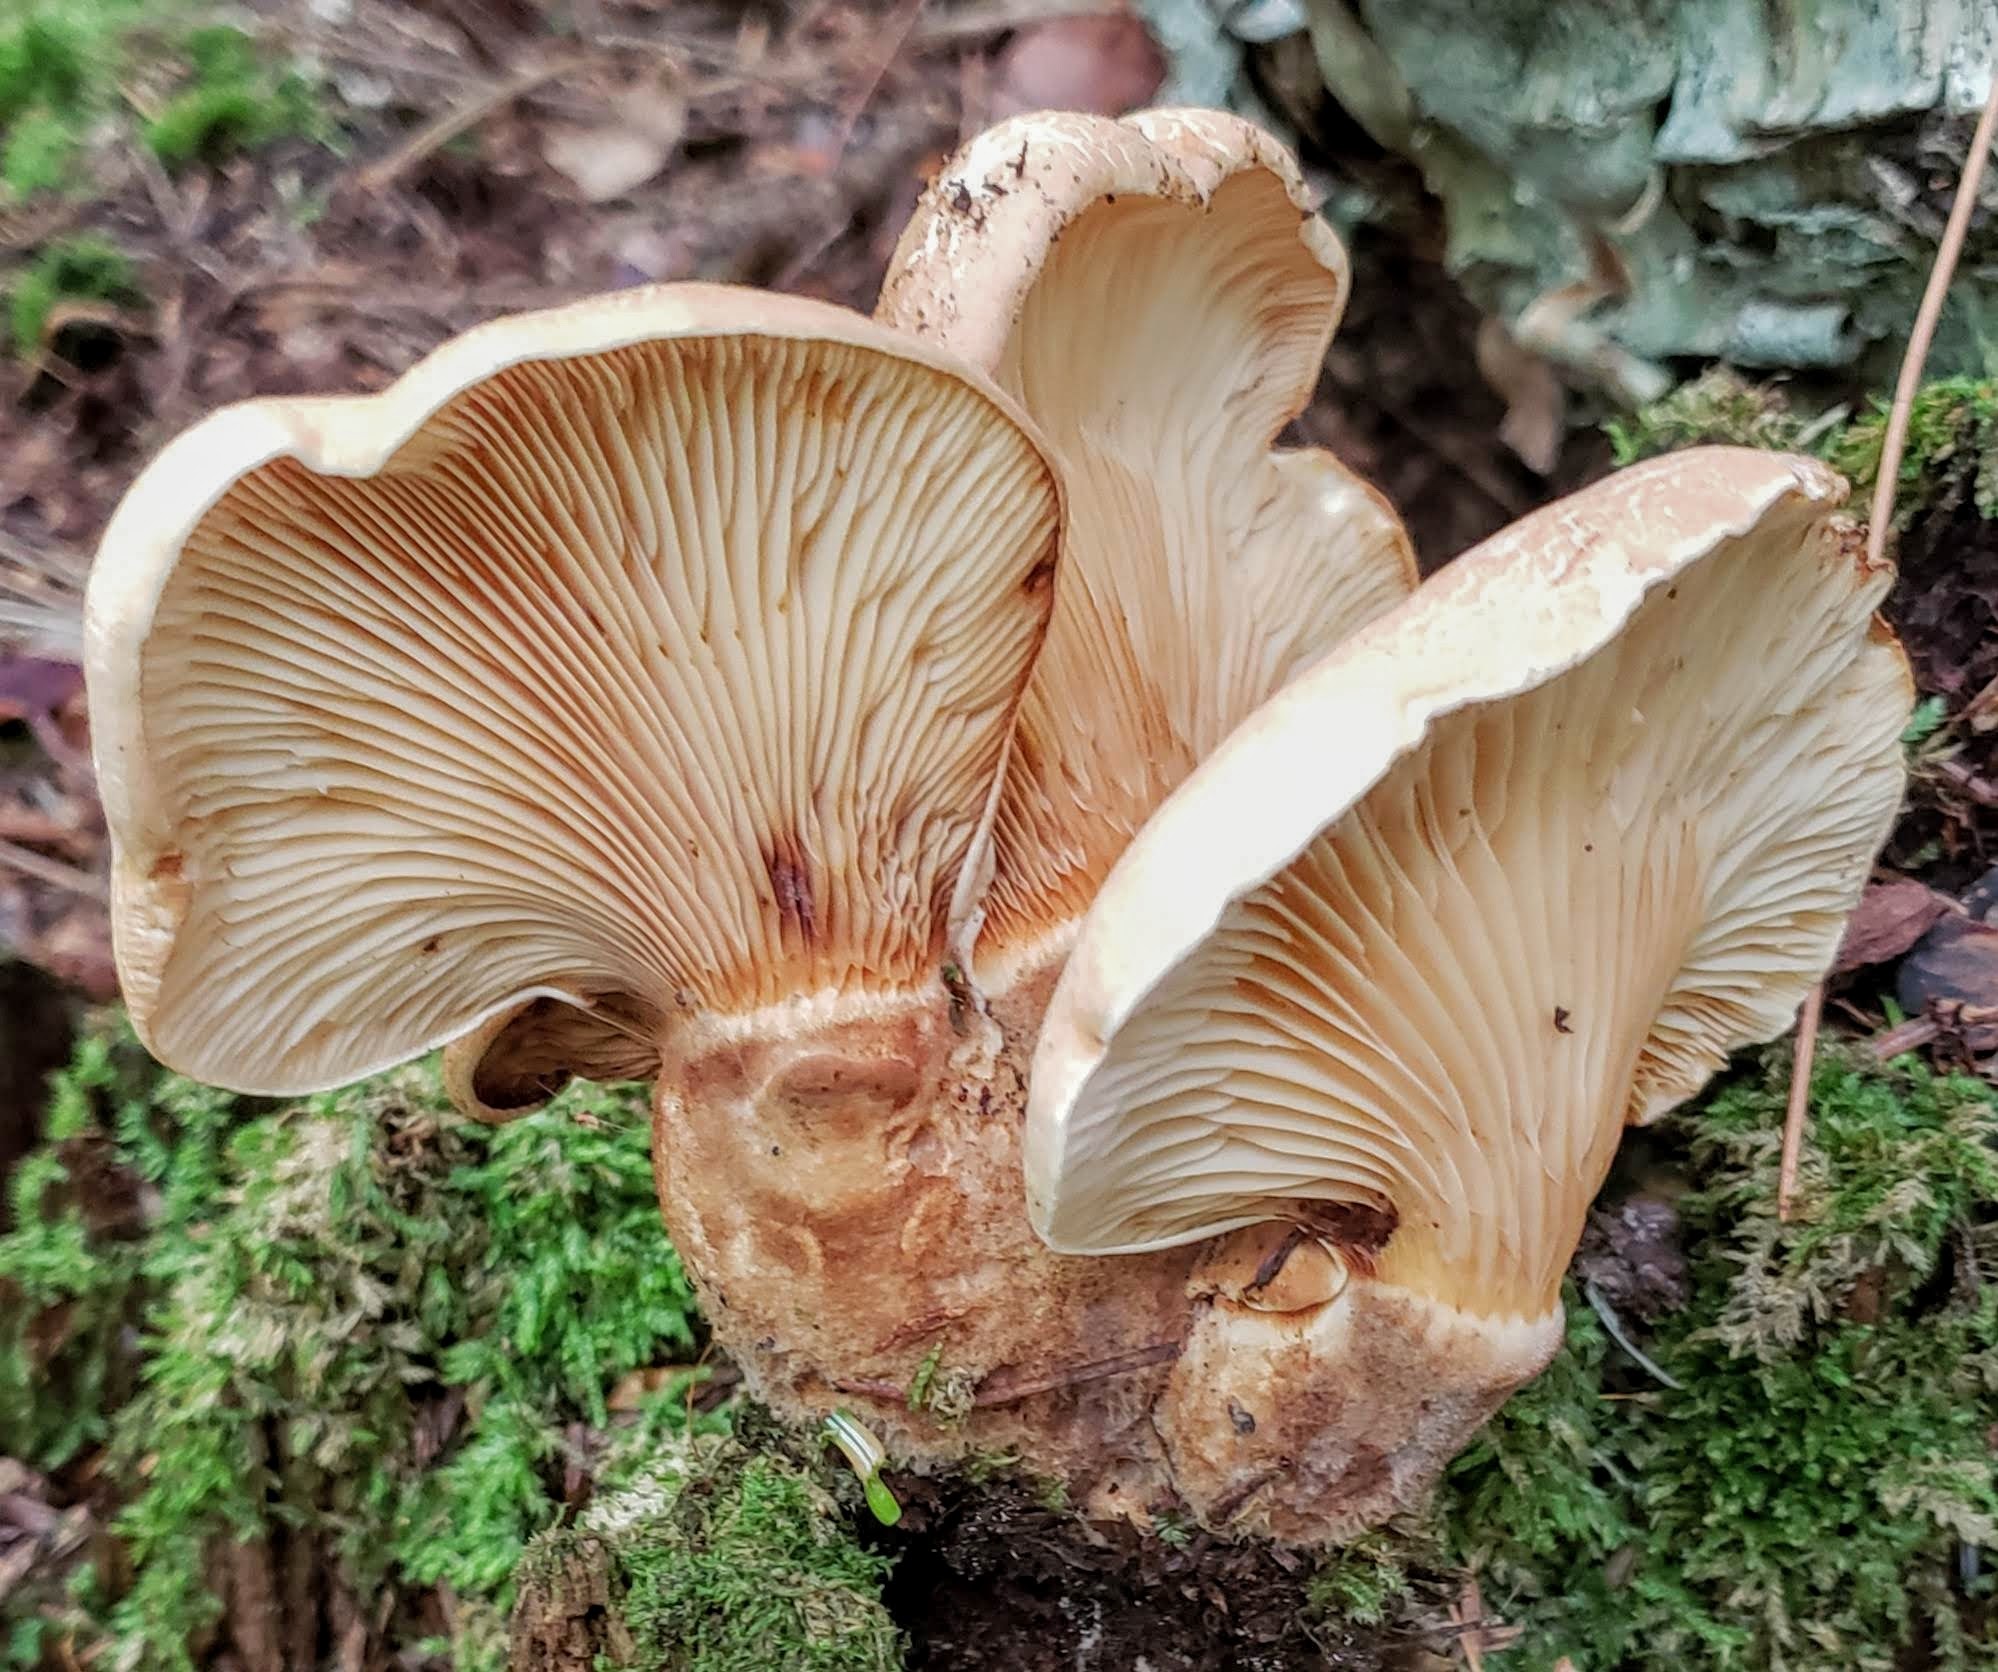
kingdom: Fungi
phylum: Basidiomycota
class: Agaricomycetes
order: Boletales
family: Tapinellaceae
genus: Tapinella
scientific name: Tapinella atrotomentosa
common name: Velvet rollrim
